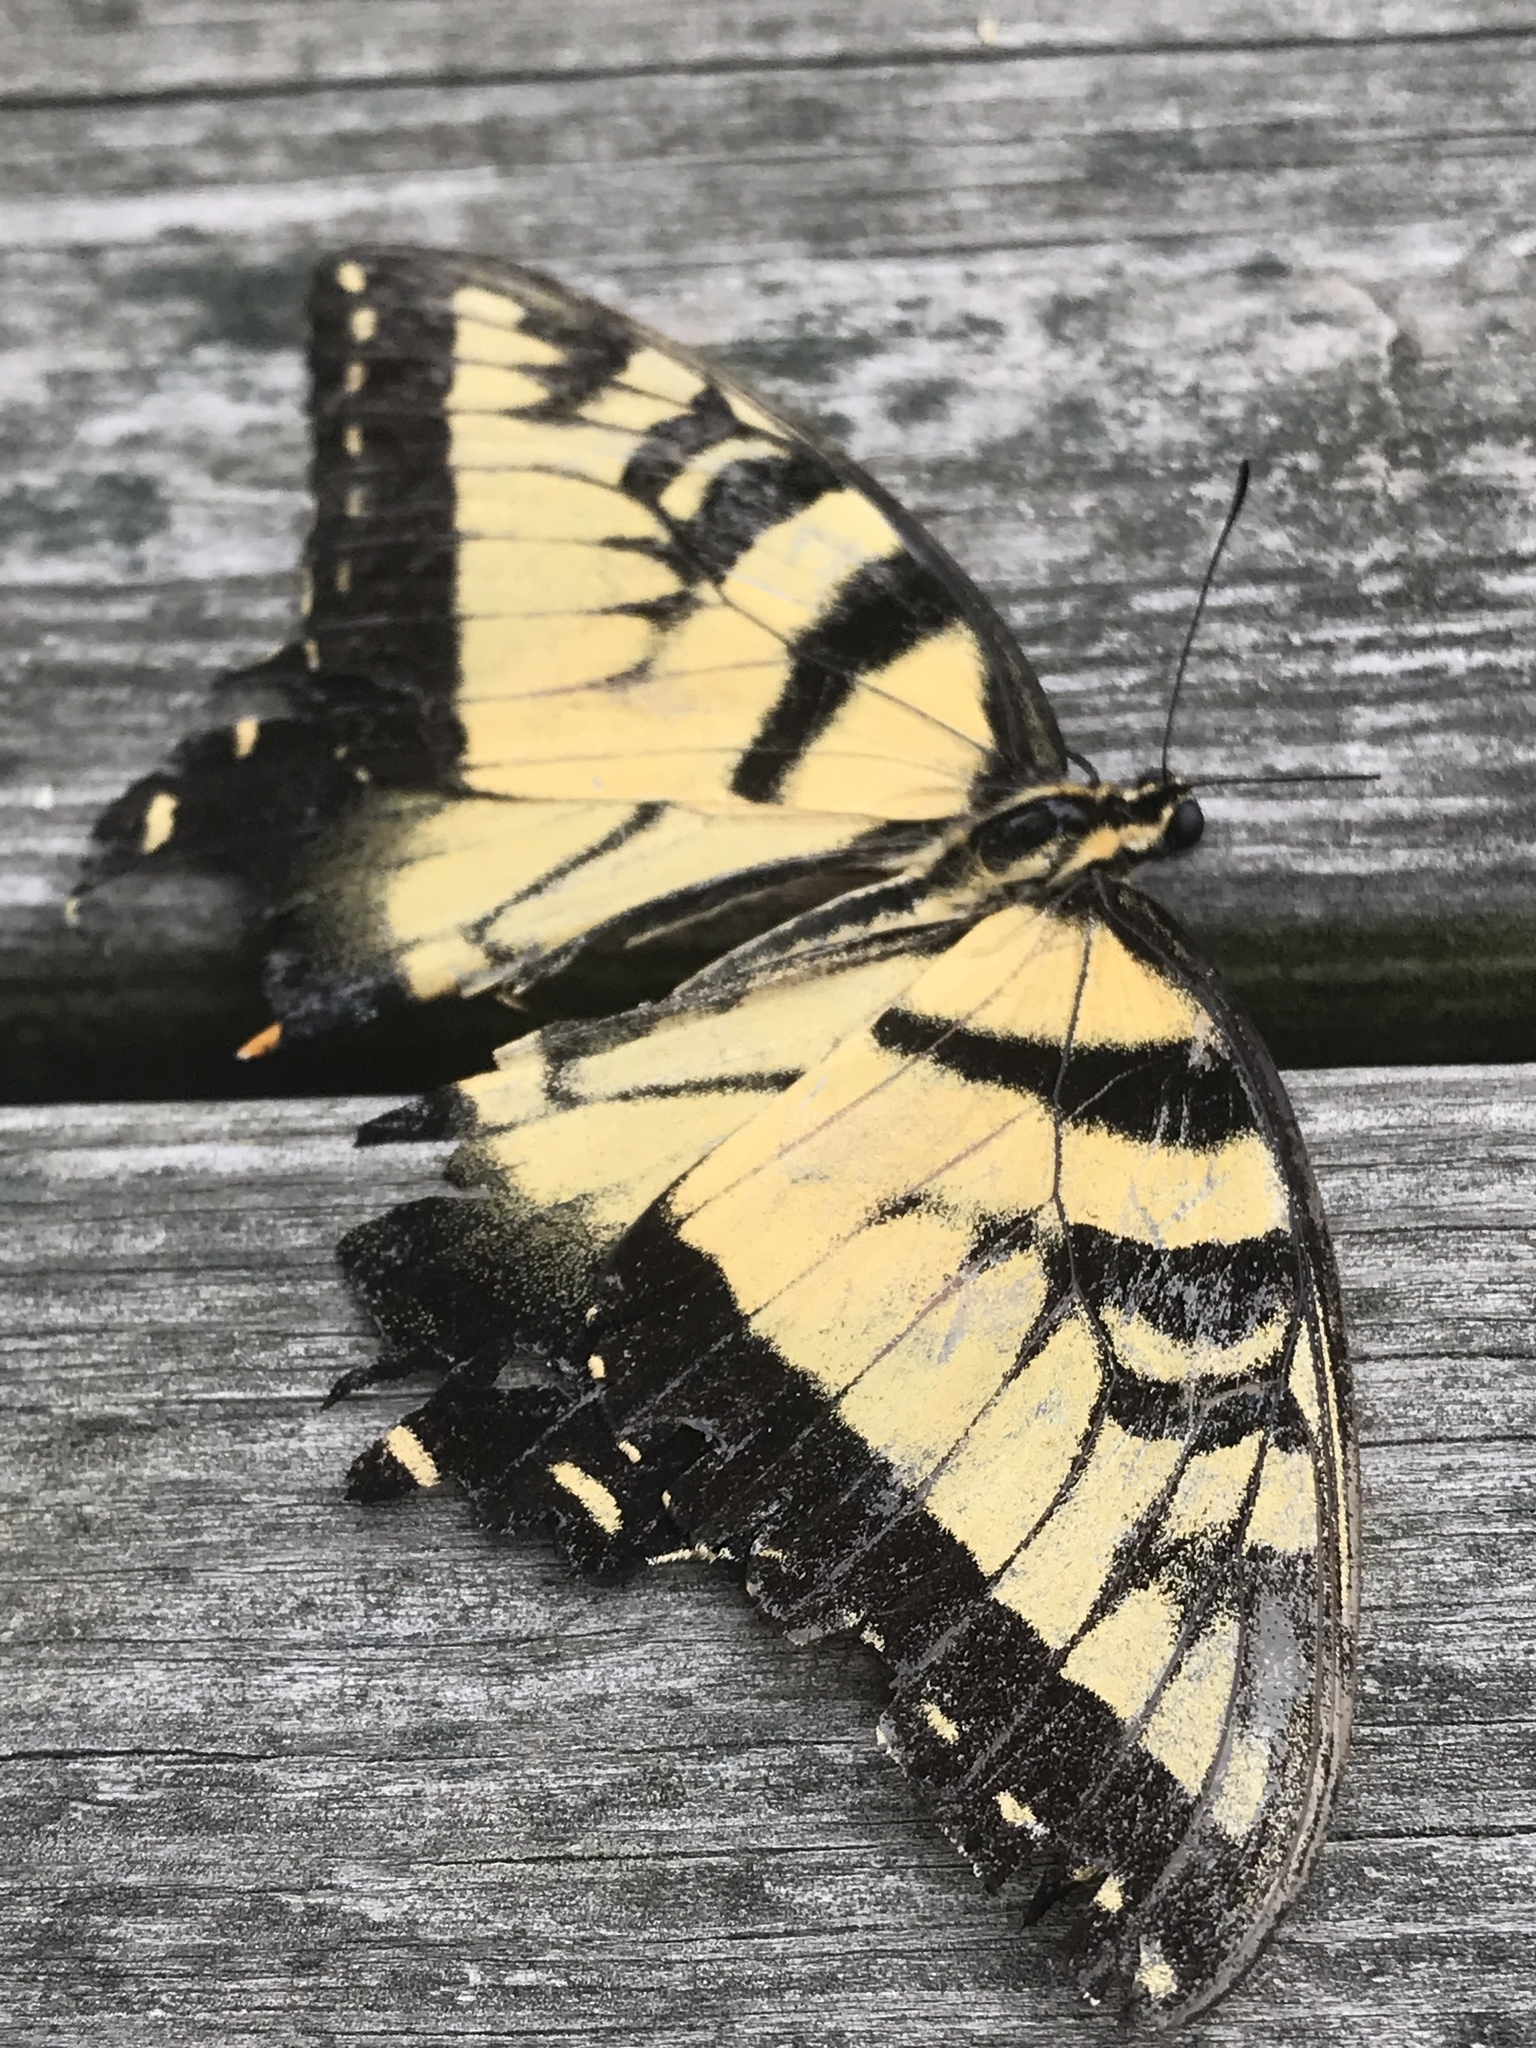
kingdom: Animalia
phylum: Arthropoda
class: Insecta
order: Lepidoptera
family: Papilionidae
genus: Papilio
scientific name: Papilio glaucus
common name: Tiger swallowtail
